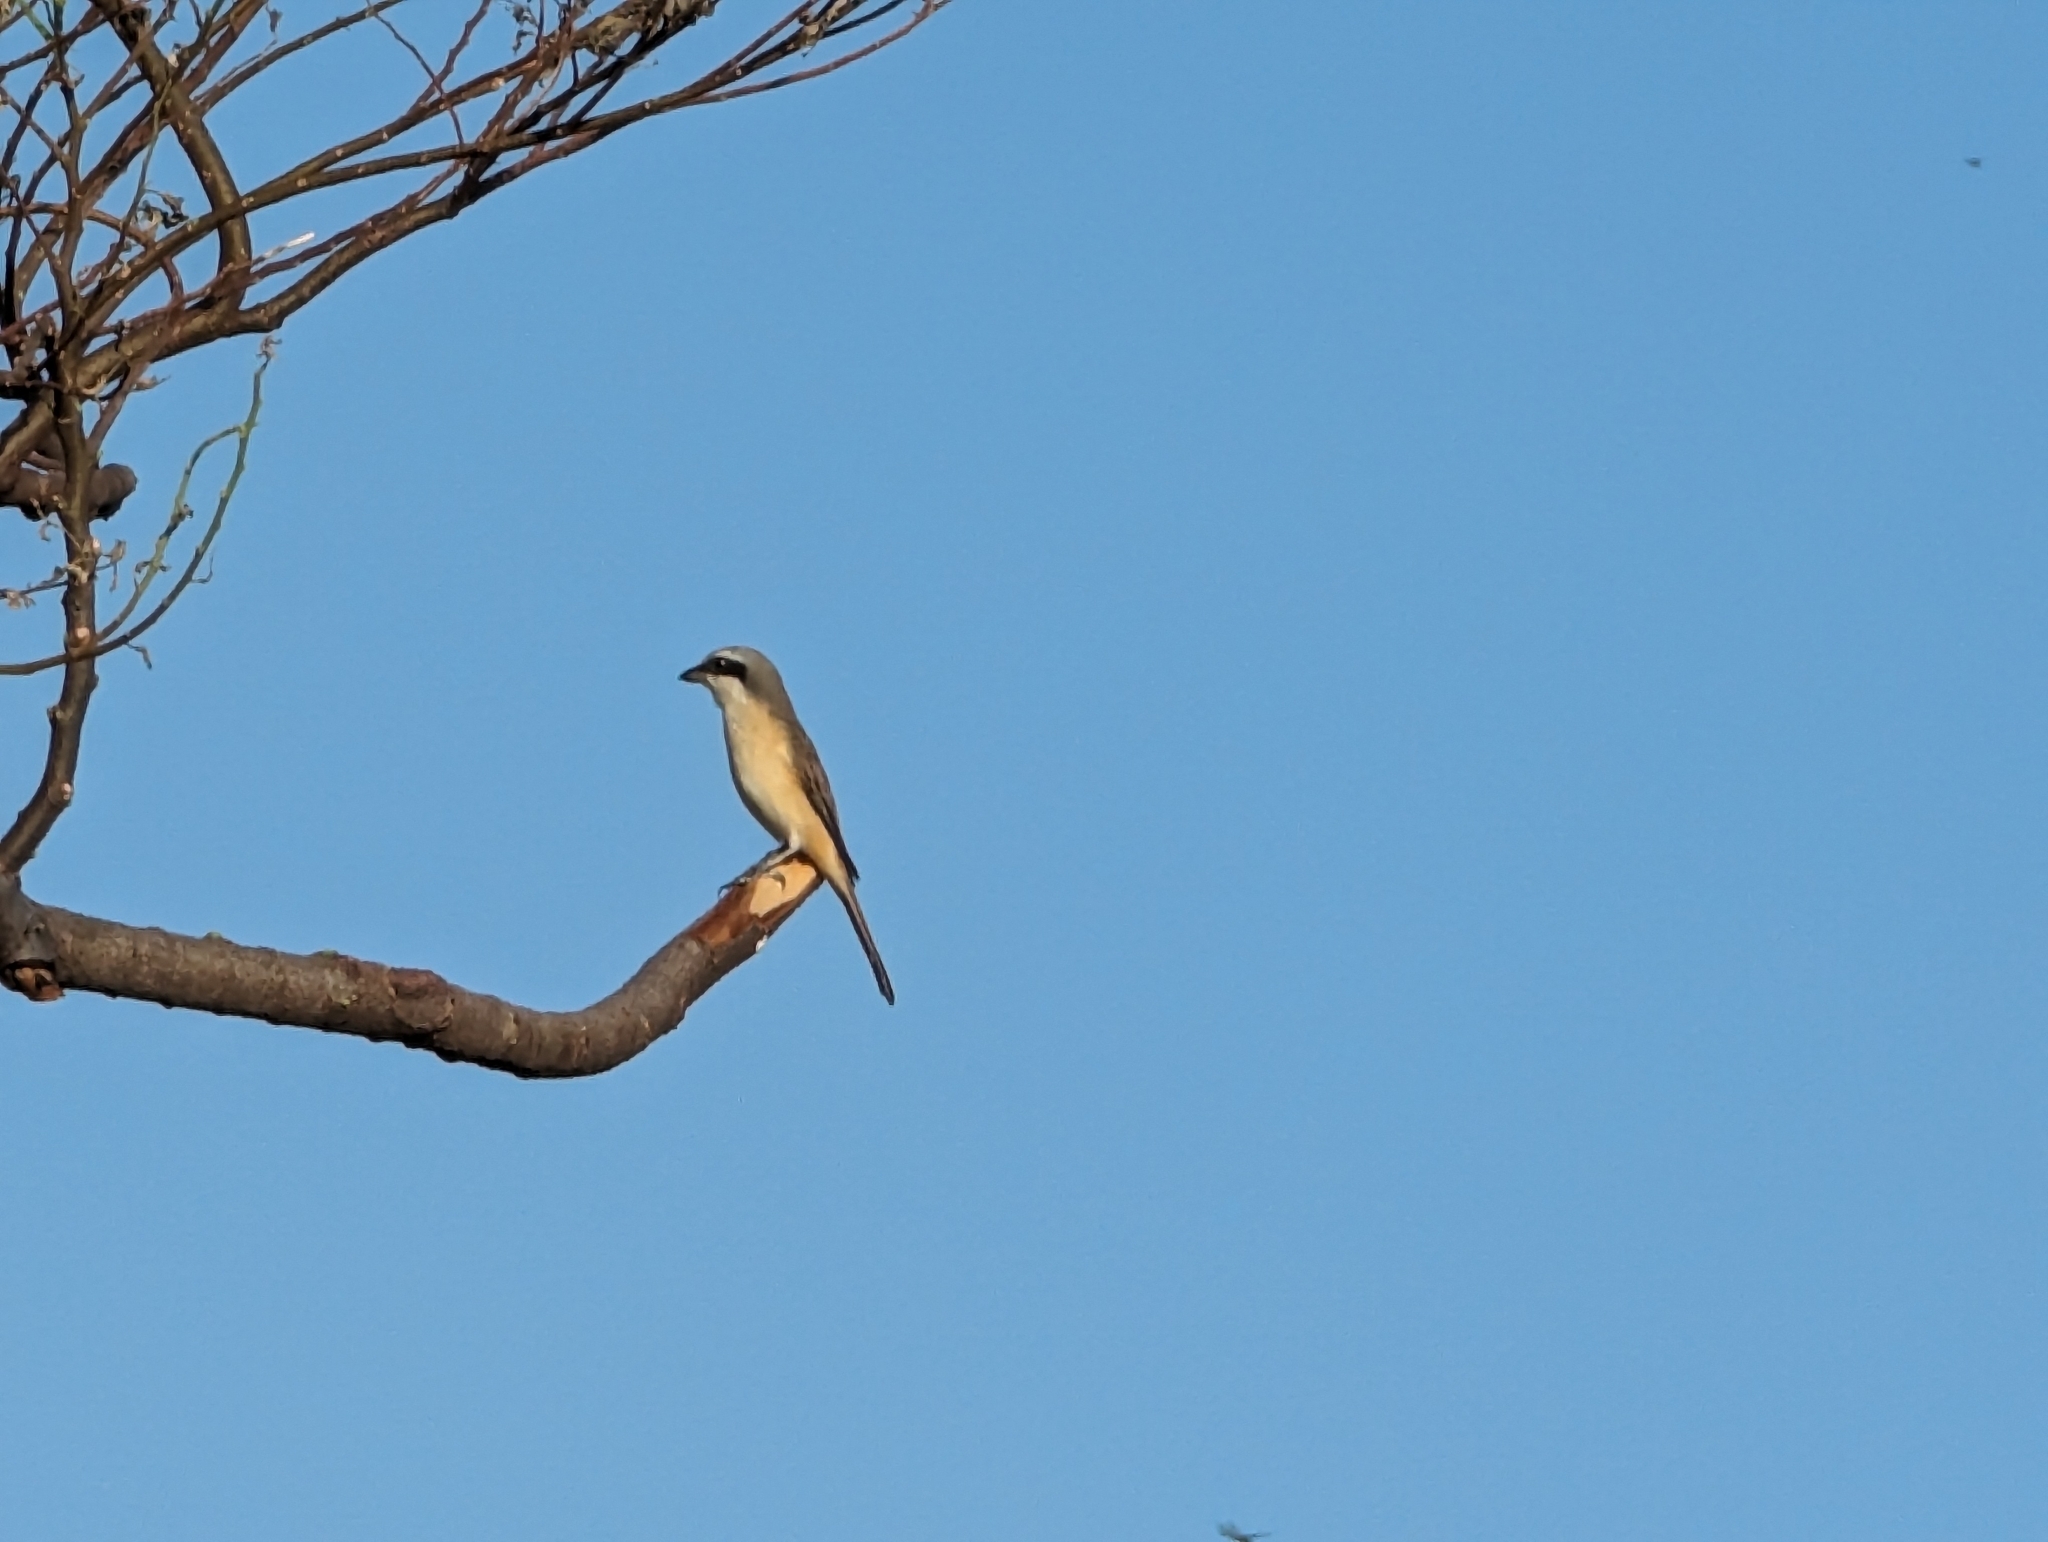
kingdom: Animalia
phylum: Chordata
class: Aves
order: Passeriformes
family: Laniidae
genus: Lanius
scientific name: Lanius cristatus
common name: Brown shrike
